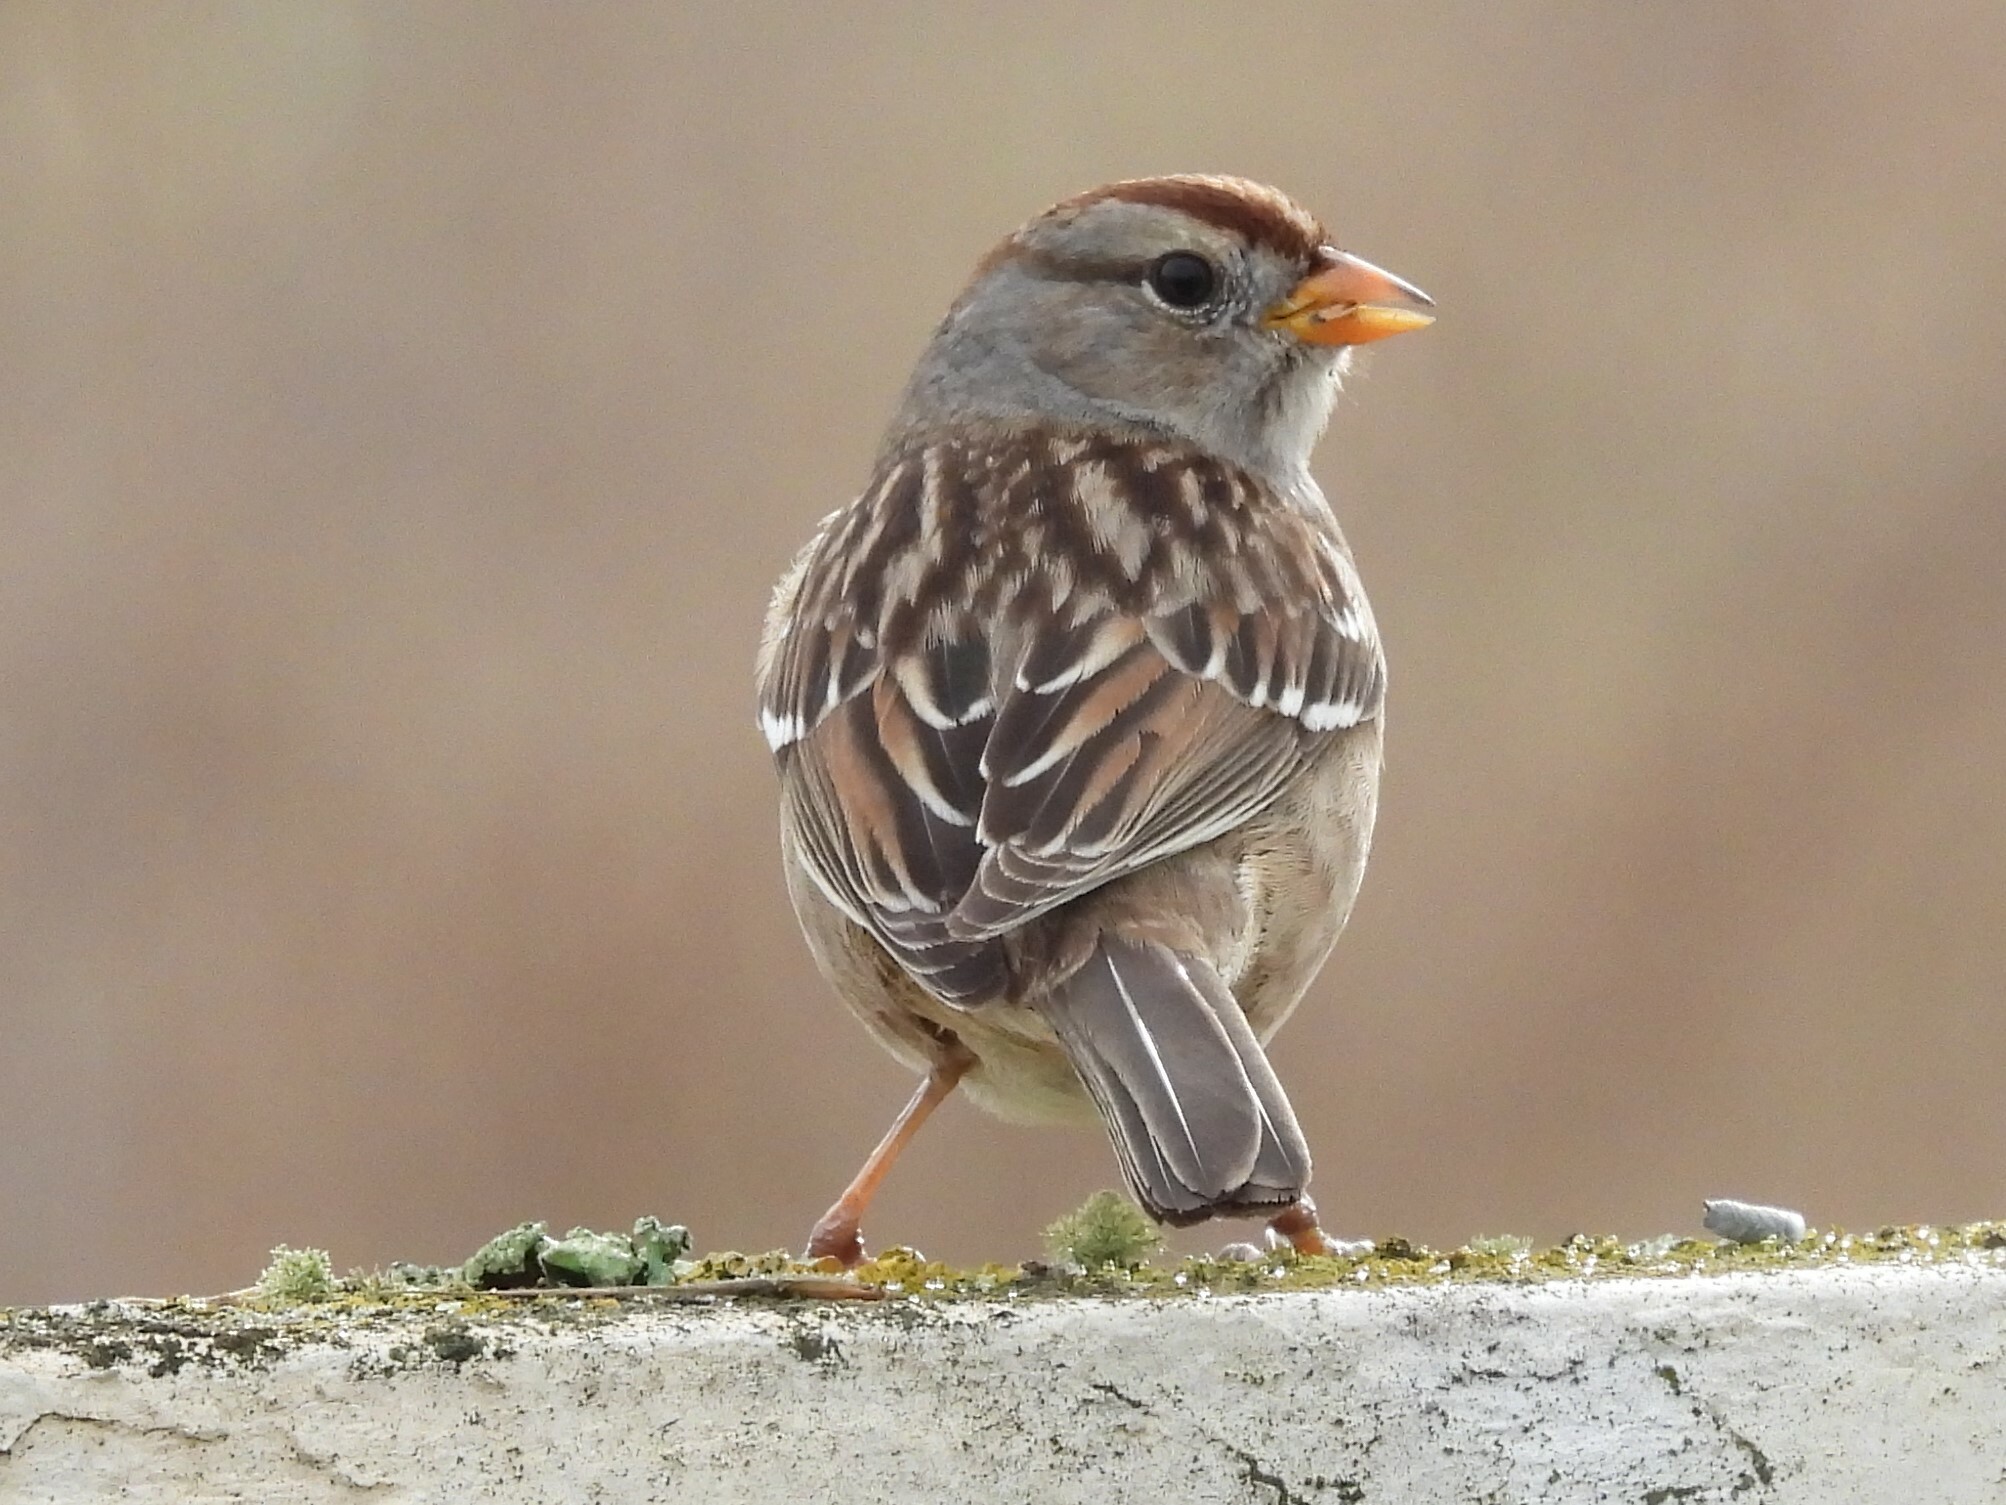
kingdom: Animalia
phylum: Chordata
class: Aves
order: Passeriformes
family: Passerellidae
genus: Zonotrichia
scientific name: Zonotrichia leucophrys
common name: White-crowned sparrow
